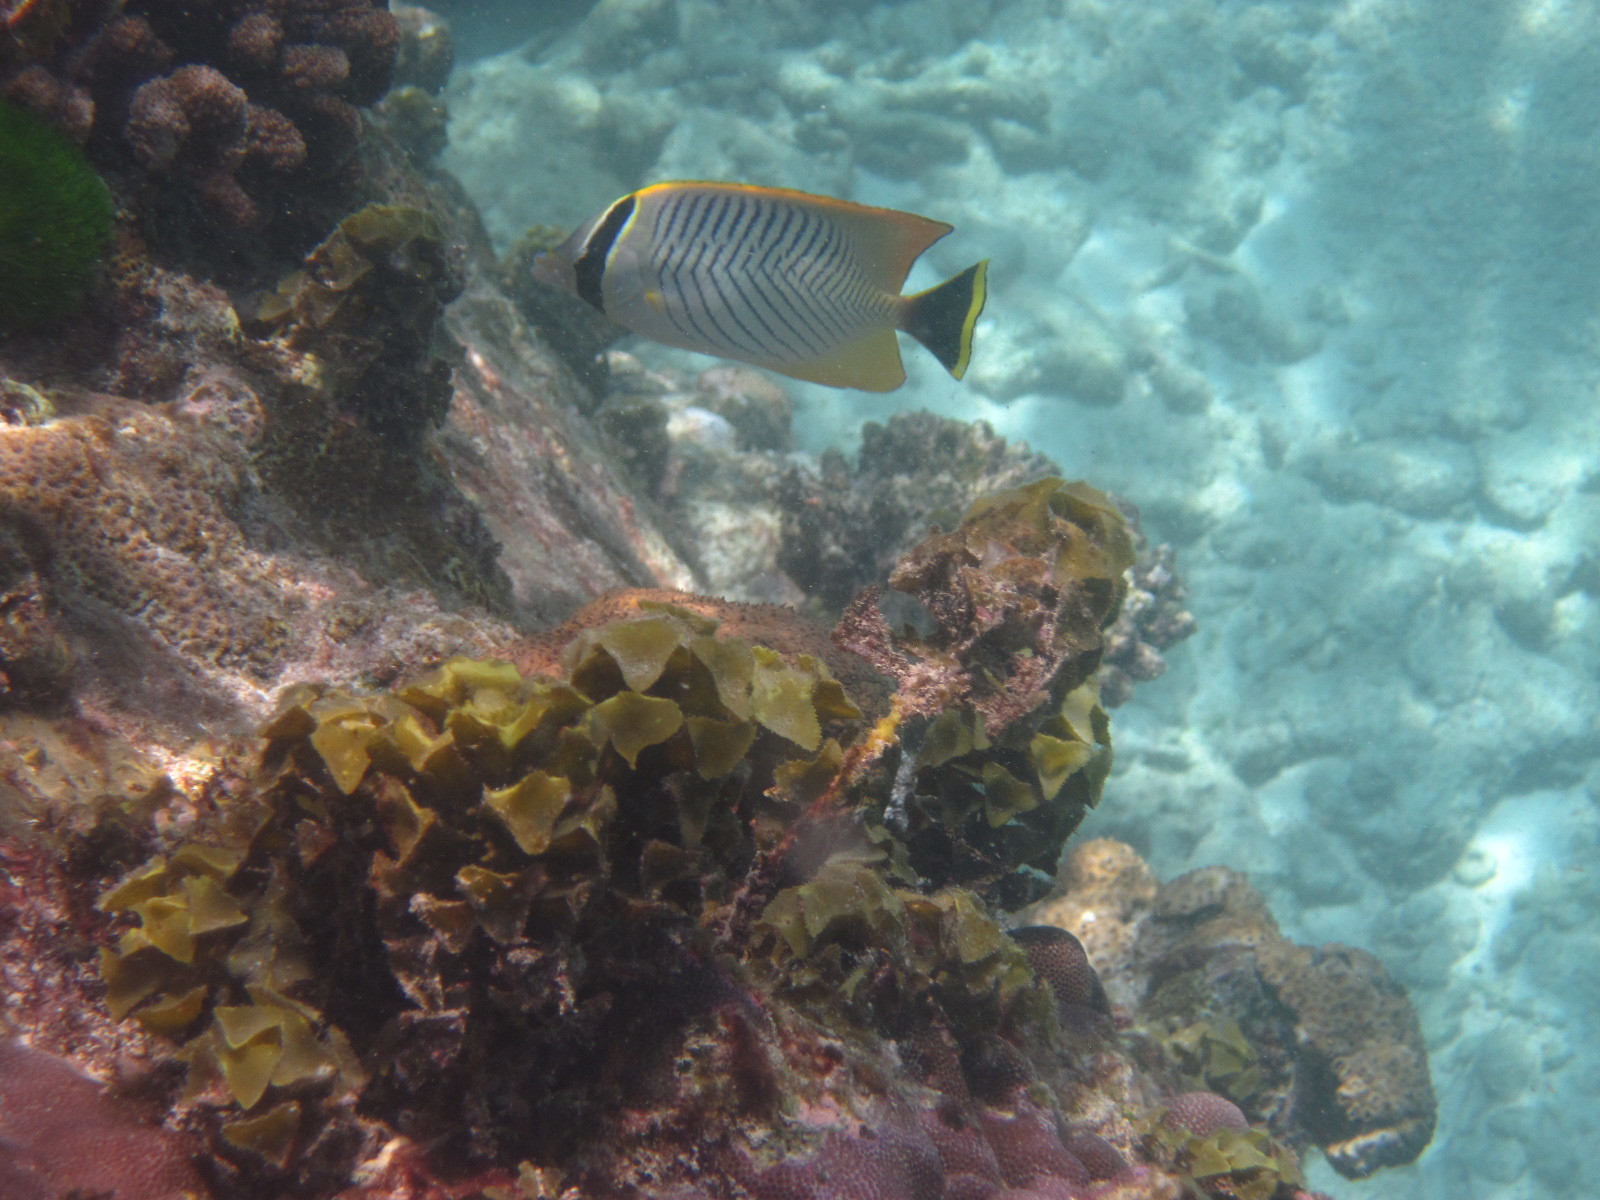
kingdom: Animalia
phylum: Chordata
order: Perciformes
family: Chaetodontidae
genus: Chaetodon
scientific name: Chaetodon trifascialis
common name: Chevroned butterflyfish
